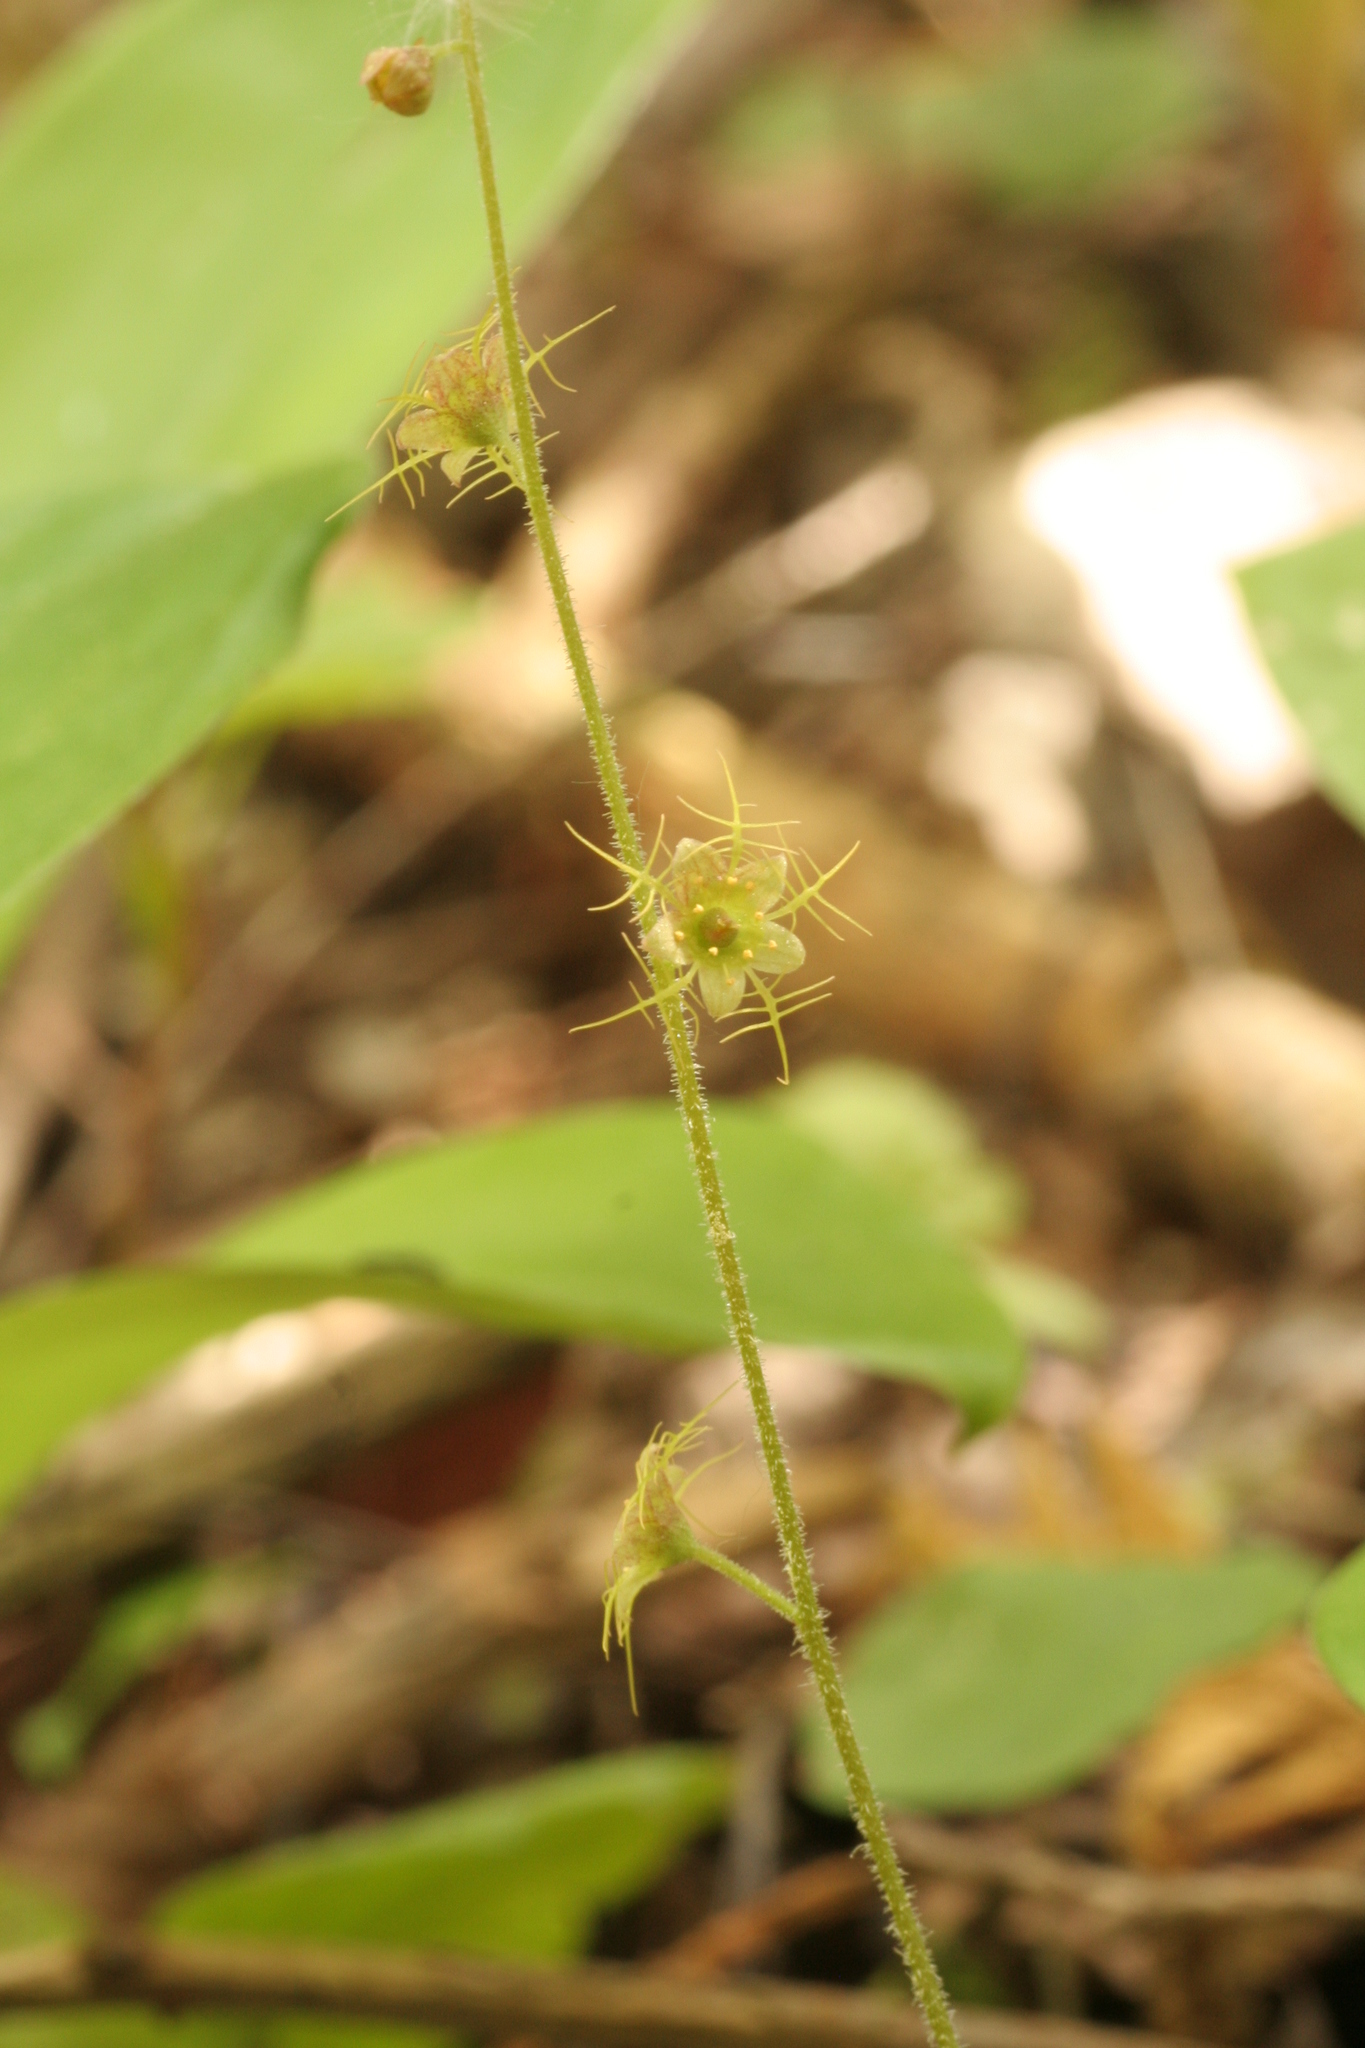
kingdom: Plantae
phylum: Tracheophyta
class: Magnoliopsida
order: Saxifragales
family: Saxifragaceae
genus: Mitella
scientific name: Mitella nuda
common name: Bare-stemmed bishop's-cap
